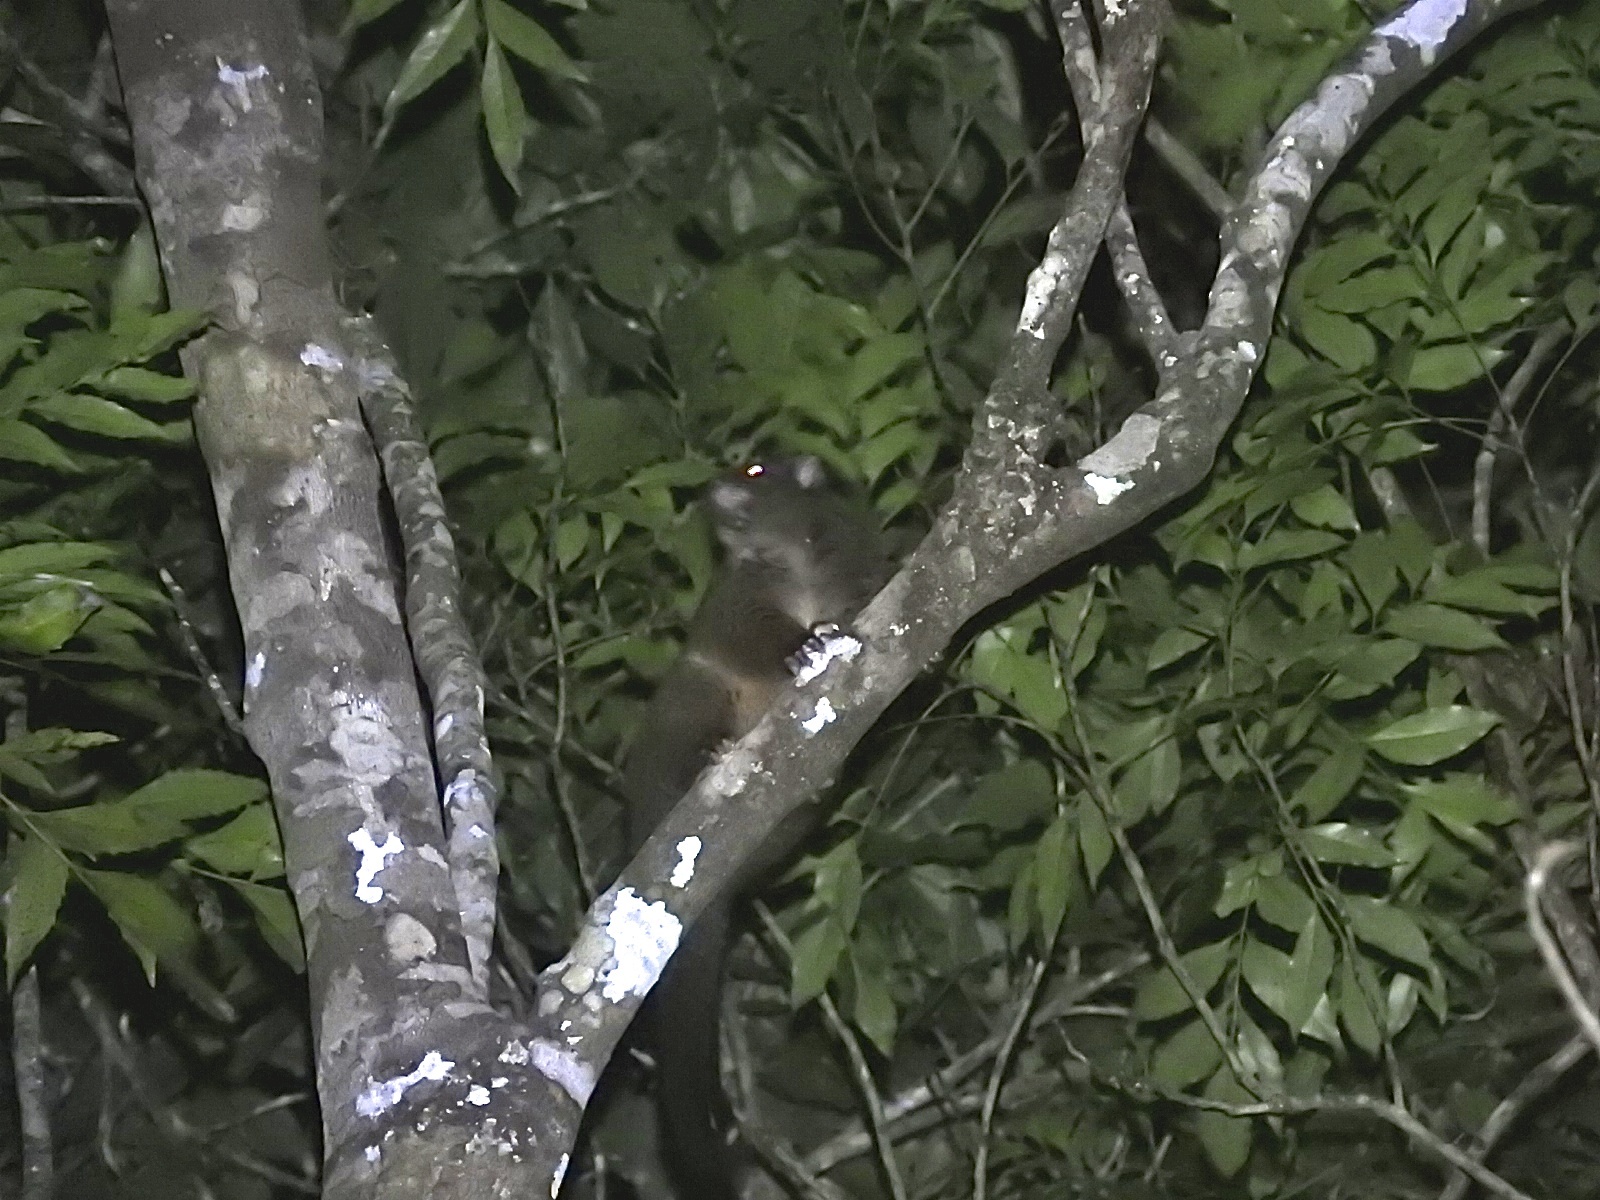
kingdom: Animalia
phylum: Chordata
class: Mammalia
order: Diprotodontia
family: Pseudocheiridae
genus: Hemibelideus
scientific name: Hemibelideus lemuroides
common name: Lemur-like ringtail
